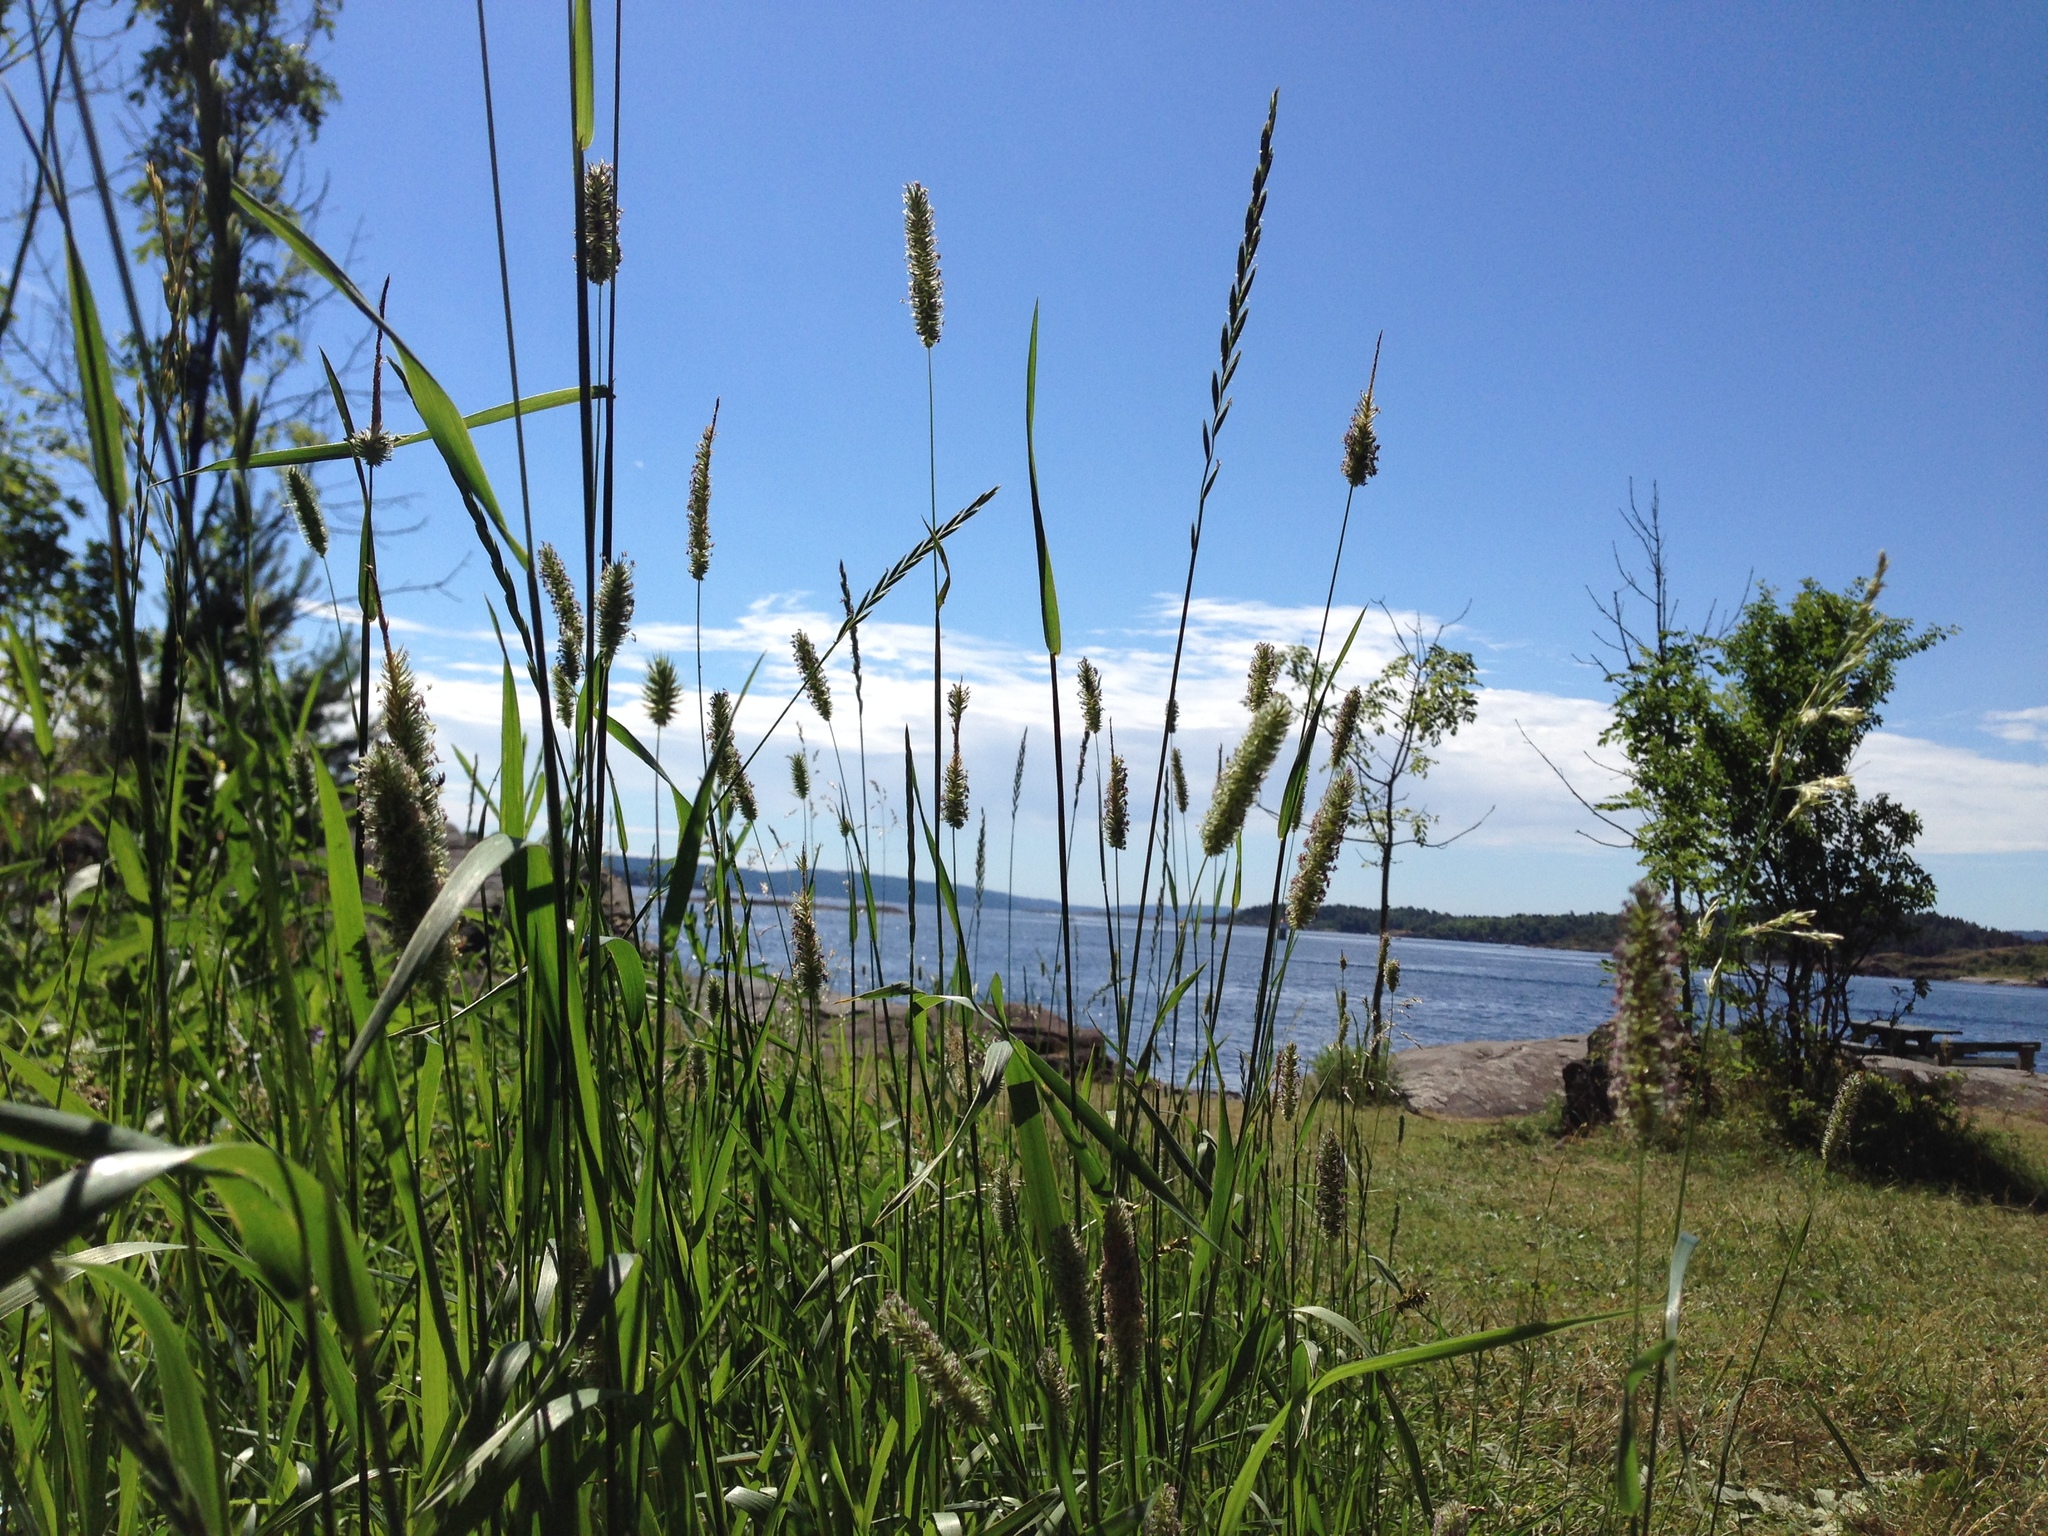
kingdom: Plantae
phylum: Tracheophyta
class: Liliopsida
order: Poales
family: Poaceae
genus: Phleum
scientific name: Phleum pratense
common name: Timothy grass
